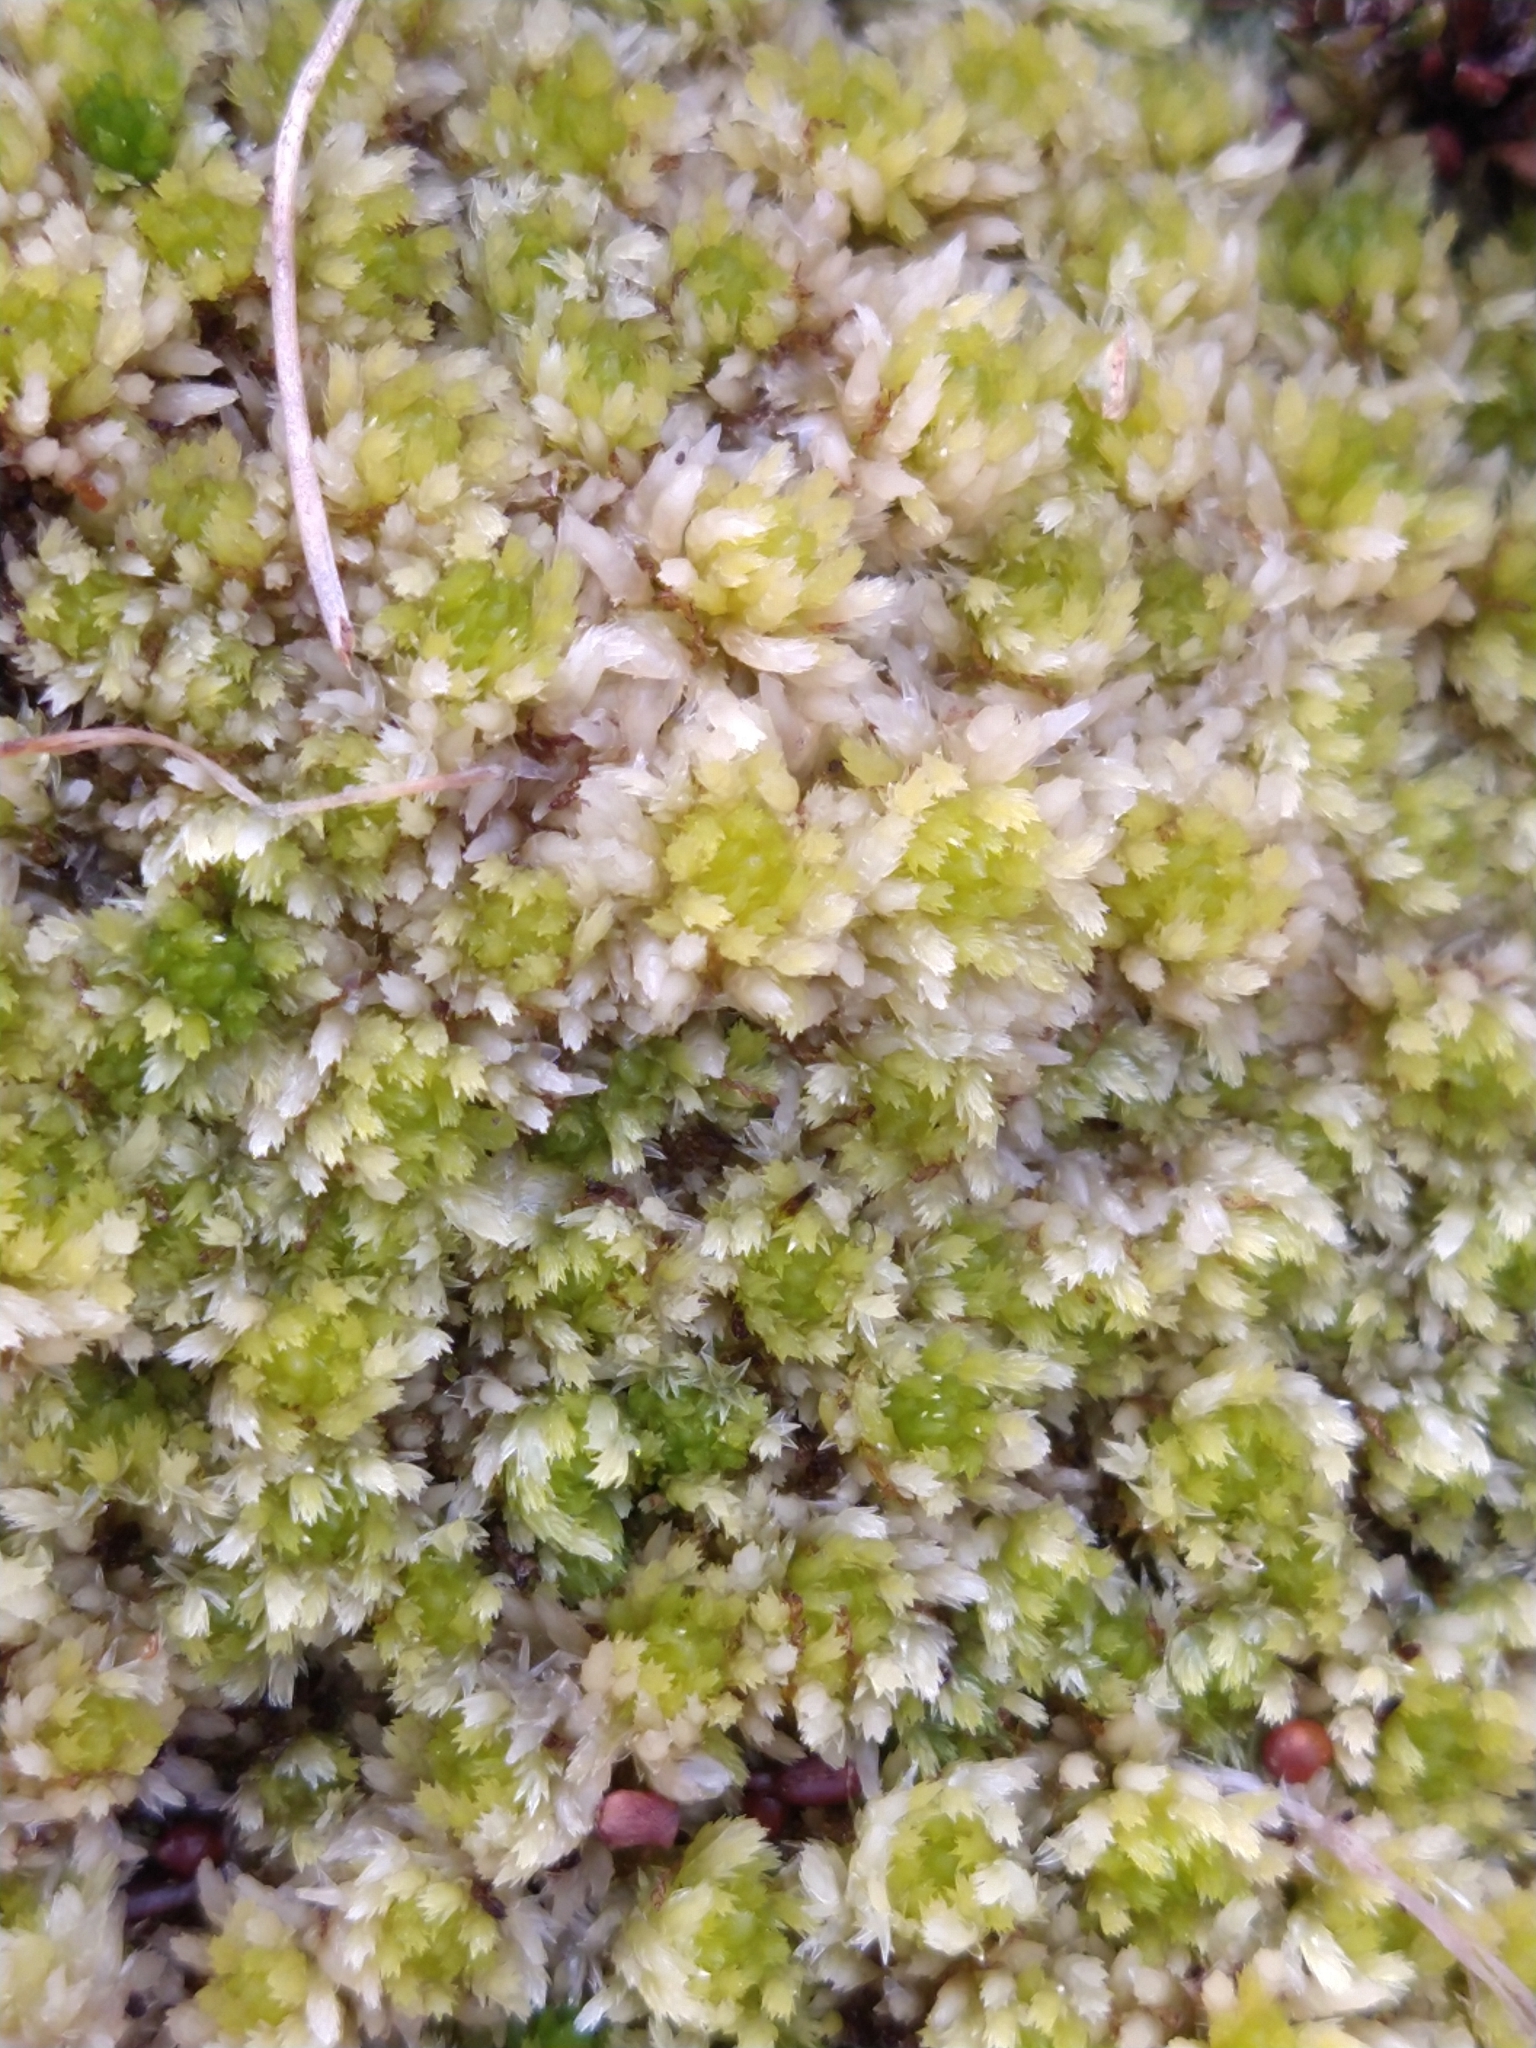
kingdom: Plantae
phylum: Bryophyta
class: Sphagnopsida
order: Sphagnales
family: Sphagnaceae
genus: Sphagnum
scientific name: Sphagnum fimbriatum
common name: Fringed peat moss
